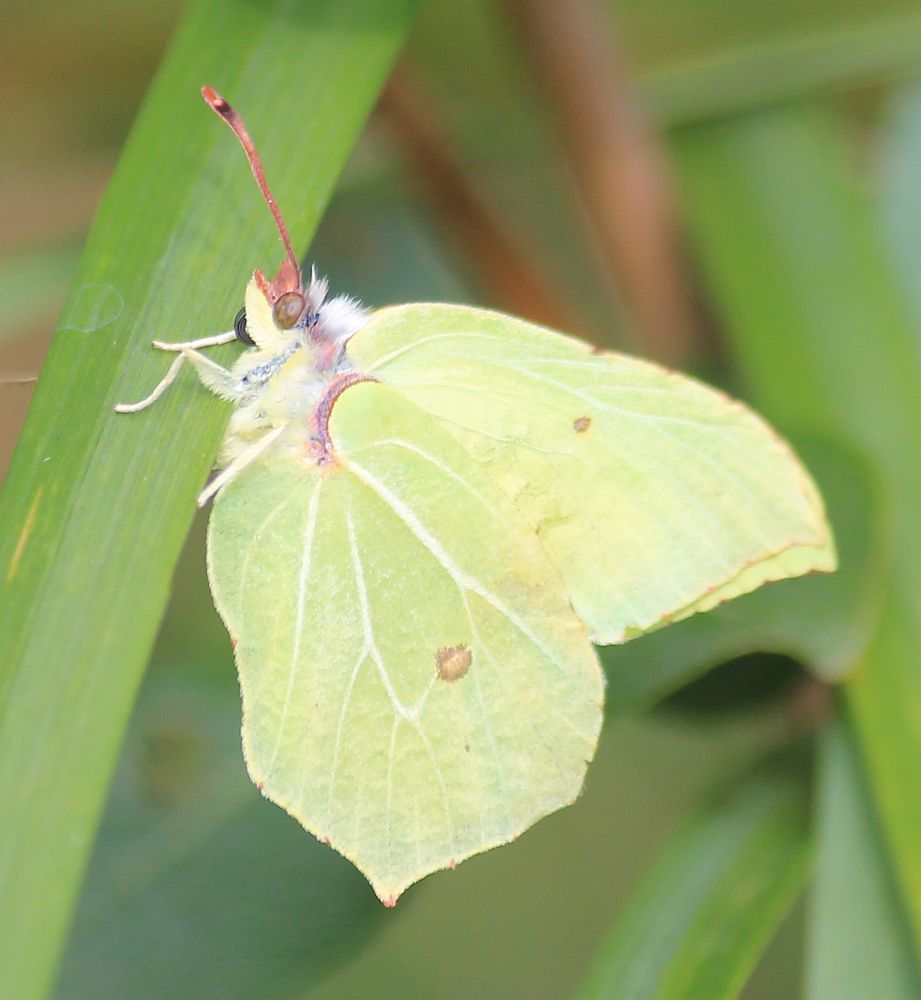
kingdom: Animalia
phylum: Arthropoda
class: Insecta
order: Lepidoptera
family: Pieridae
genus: Gonepteryx
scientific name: Gonepteryx rhamni
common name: Brimstone
